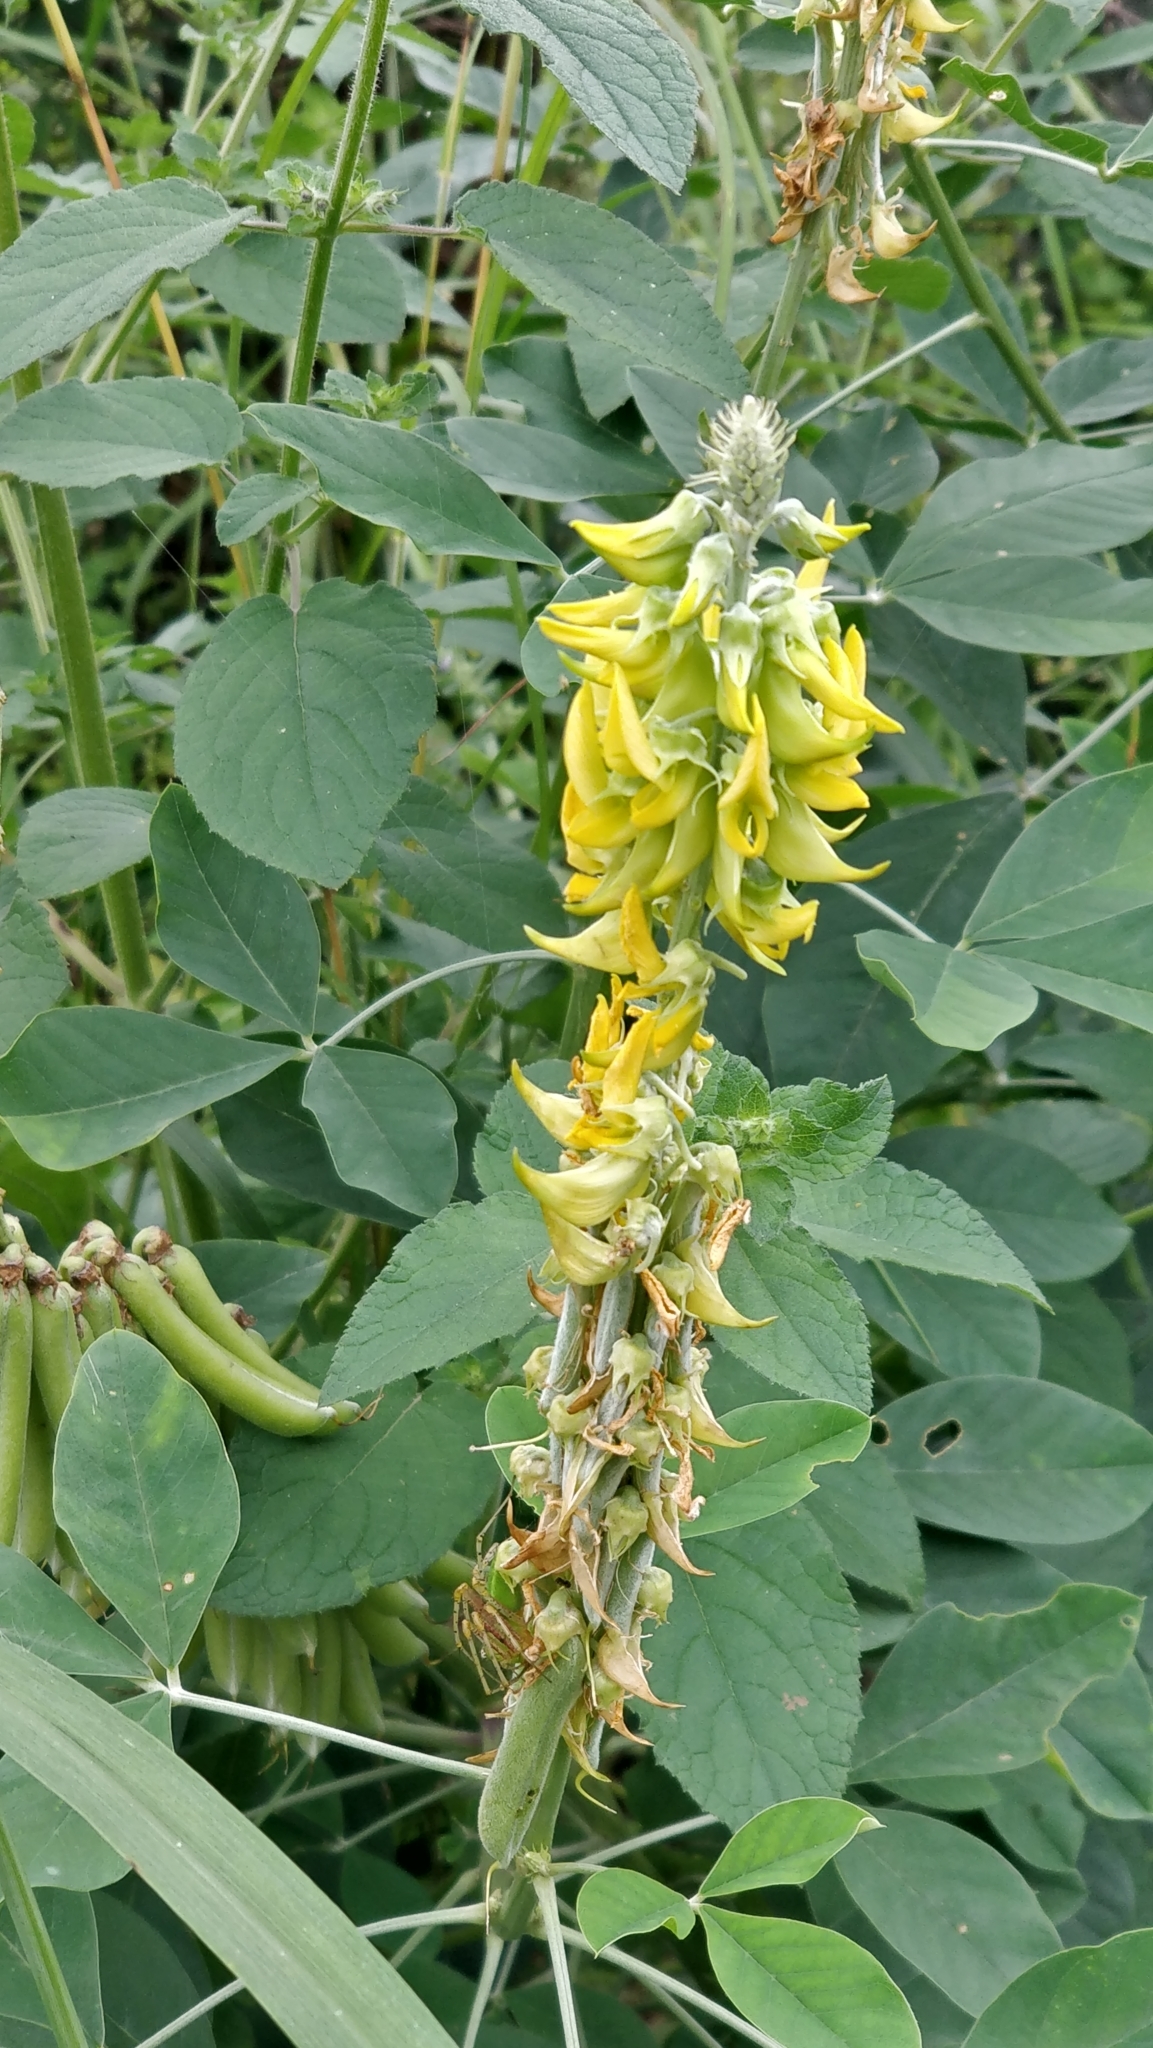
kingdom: Plantae
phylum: Tracheophyta
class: Magnoliopsida
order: Fabales
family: Fabaceae
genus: Crotalaria
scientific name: Crotalaria pallida
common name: Smooth rattlebox
